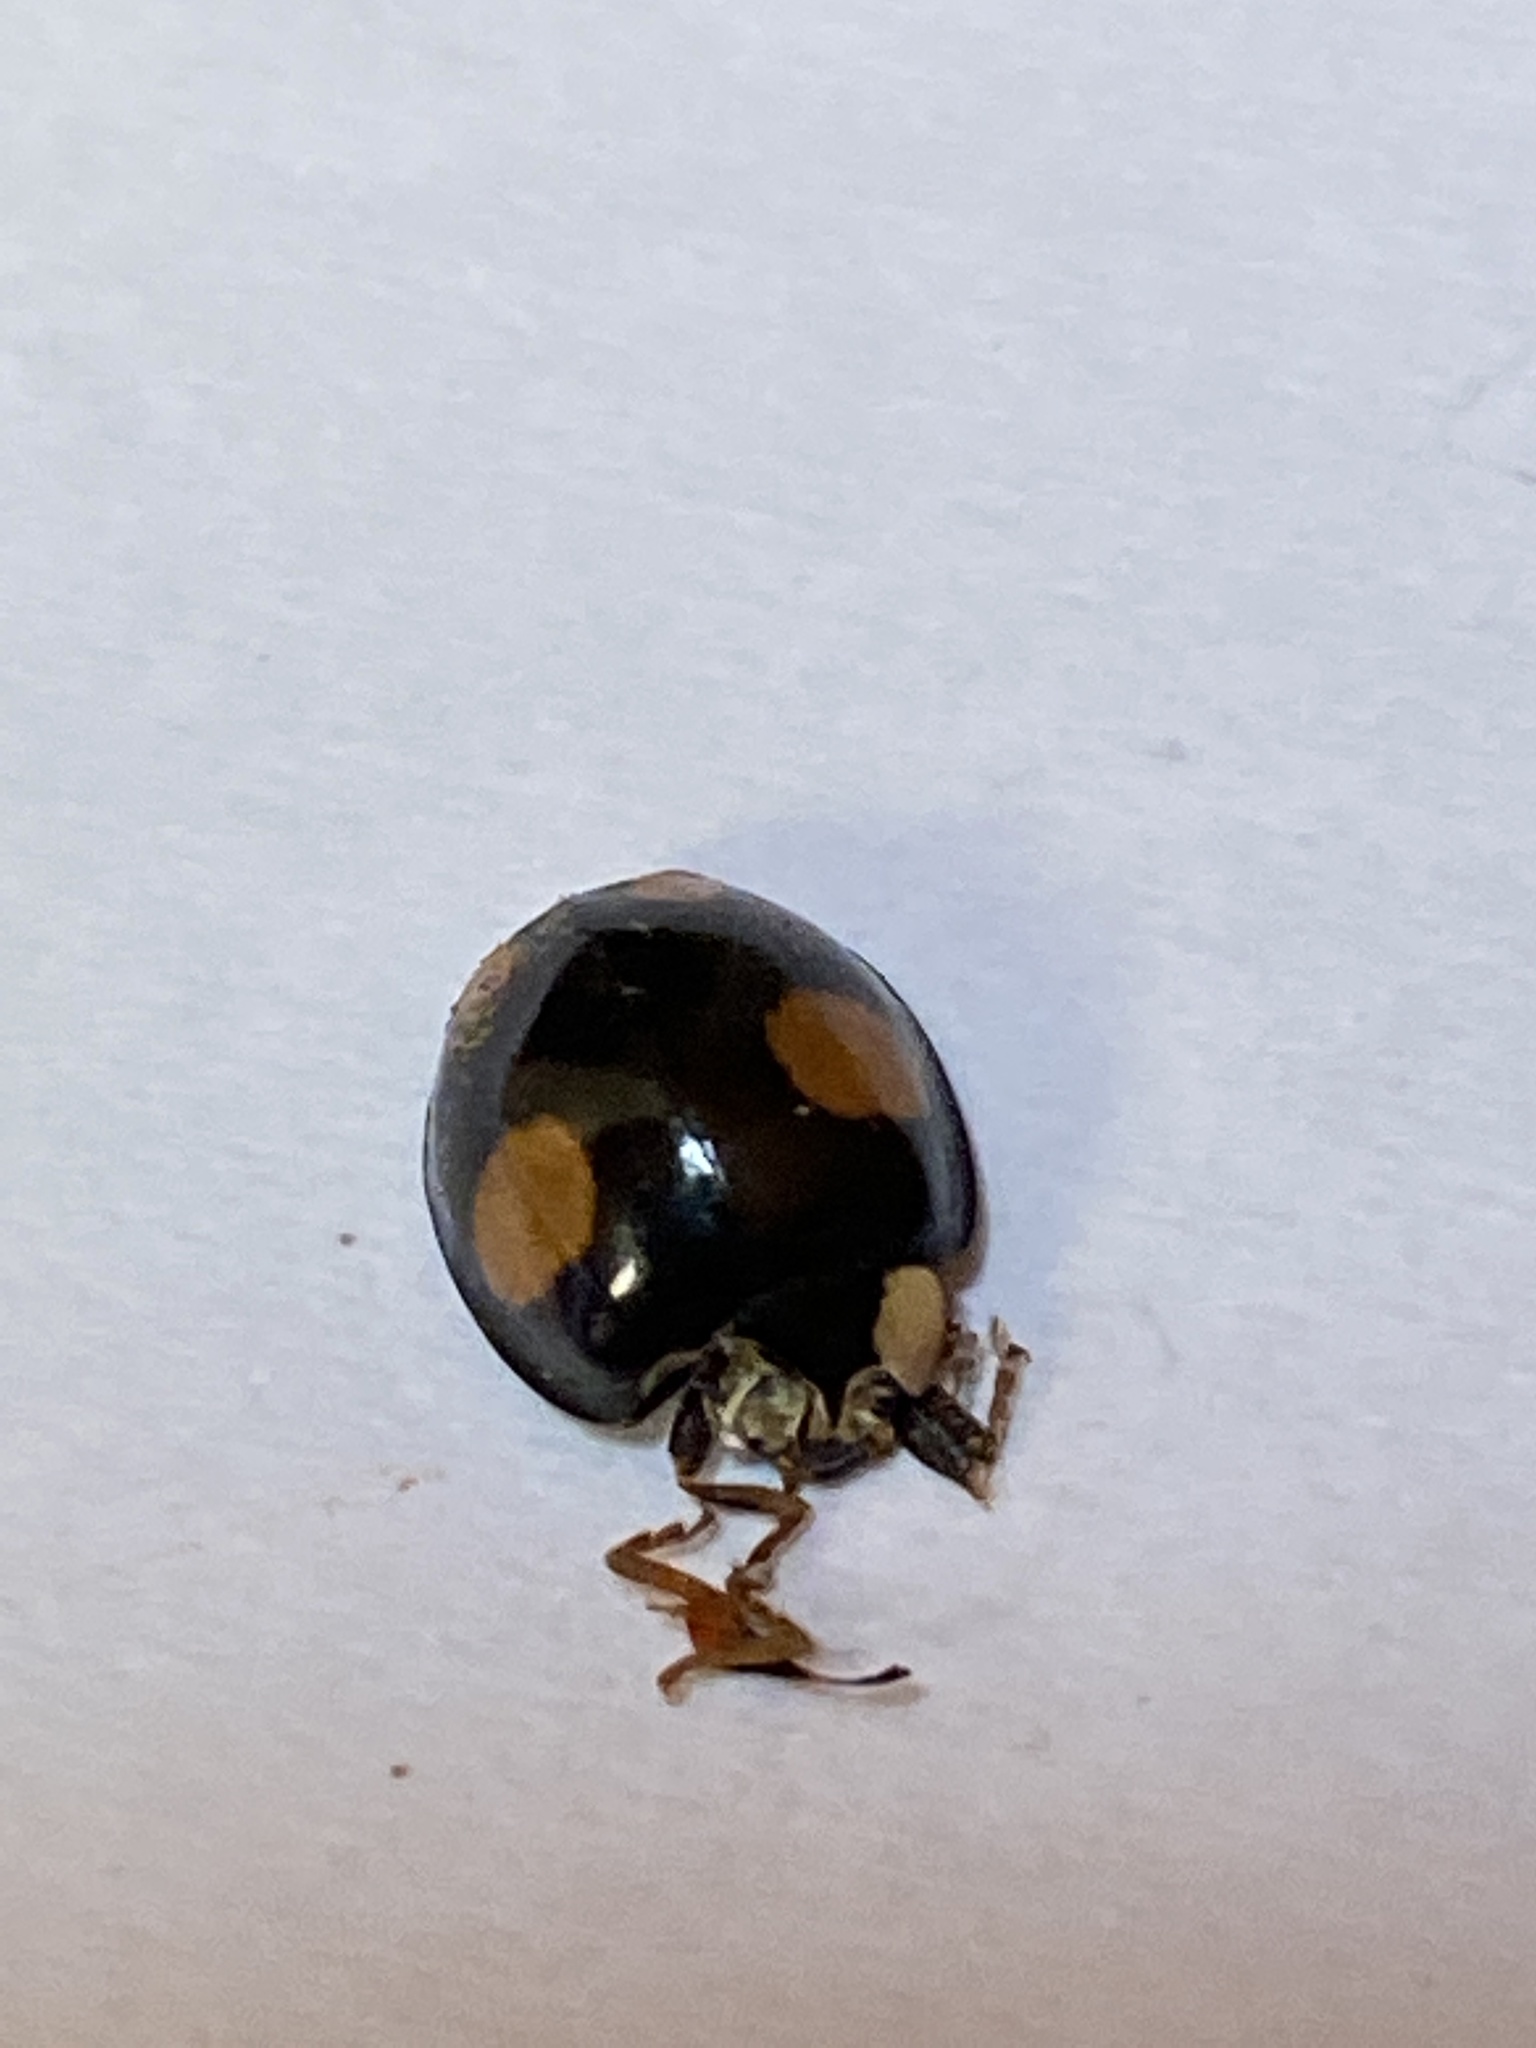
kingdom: Animalia
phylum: Arthropoda
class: Insecta
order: Coleoptera
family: Coccinellidae
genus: Harmonia
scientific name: Harmonia axyridis
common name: Harlequin ladybird
